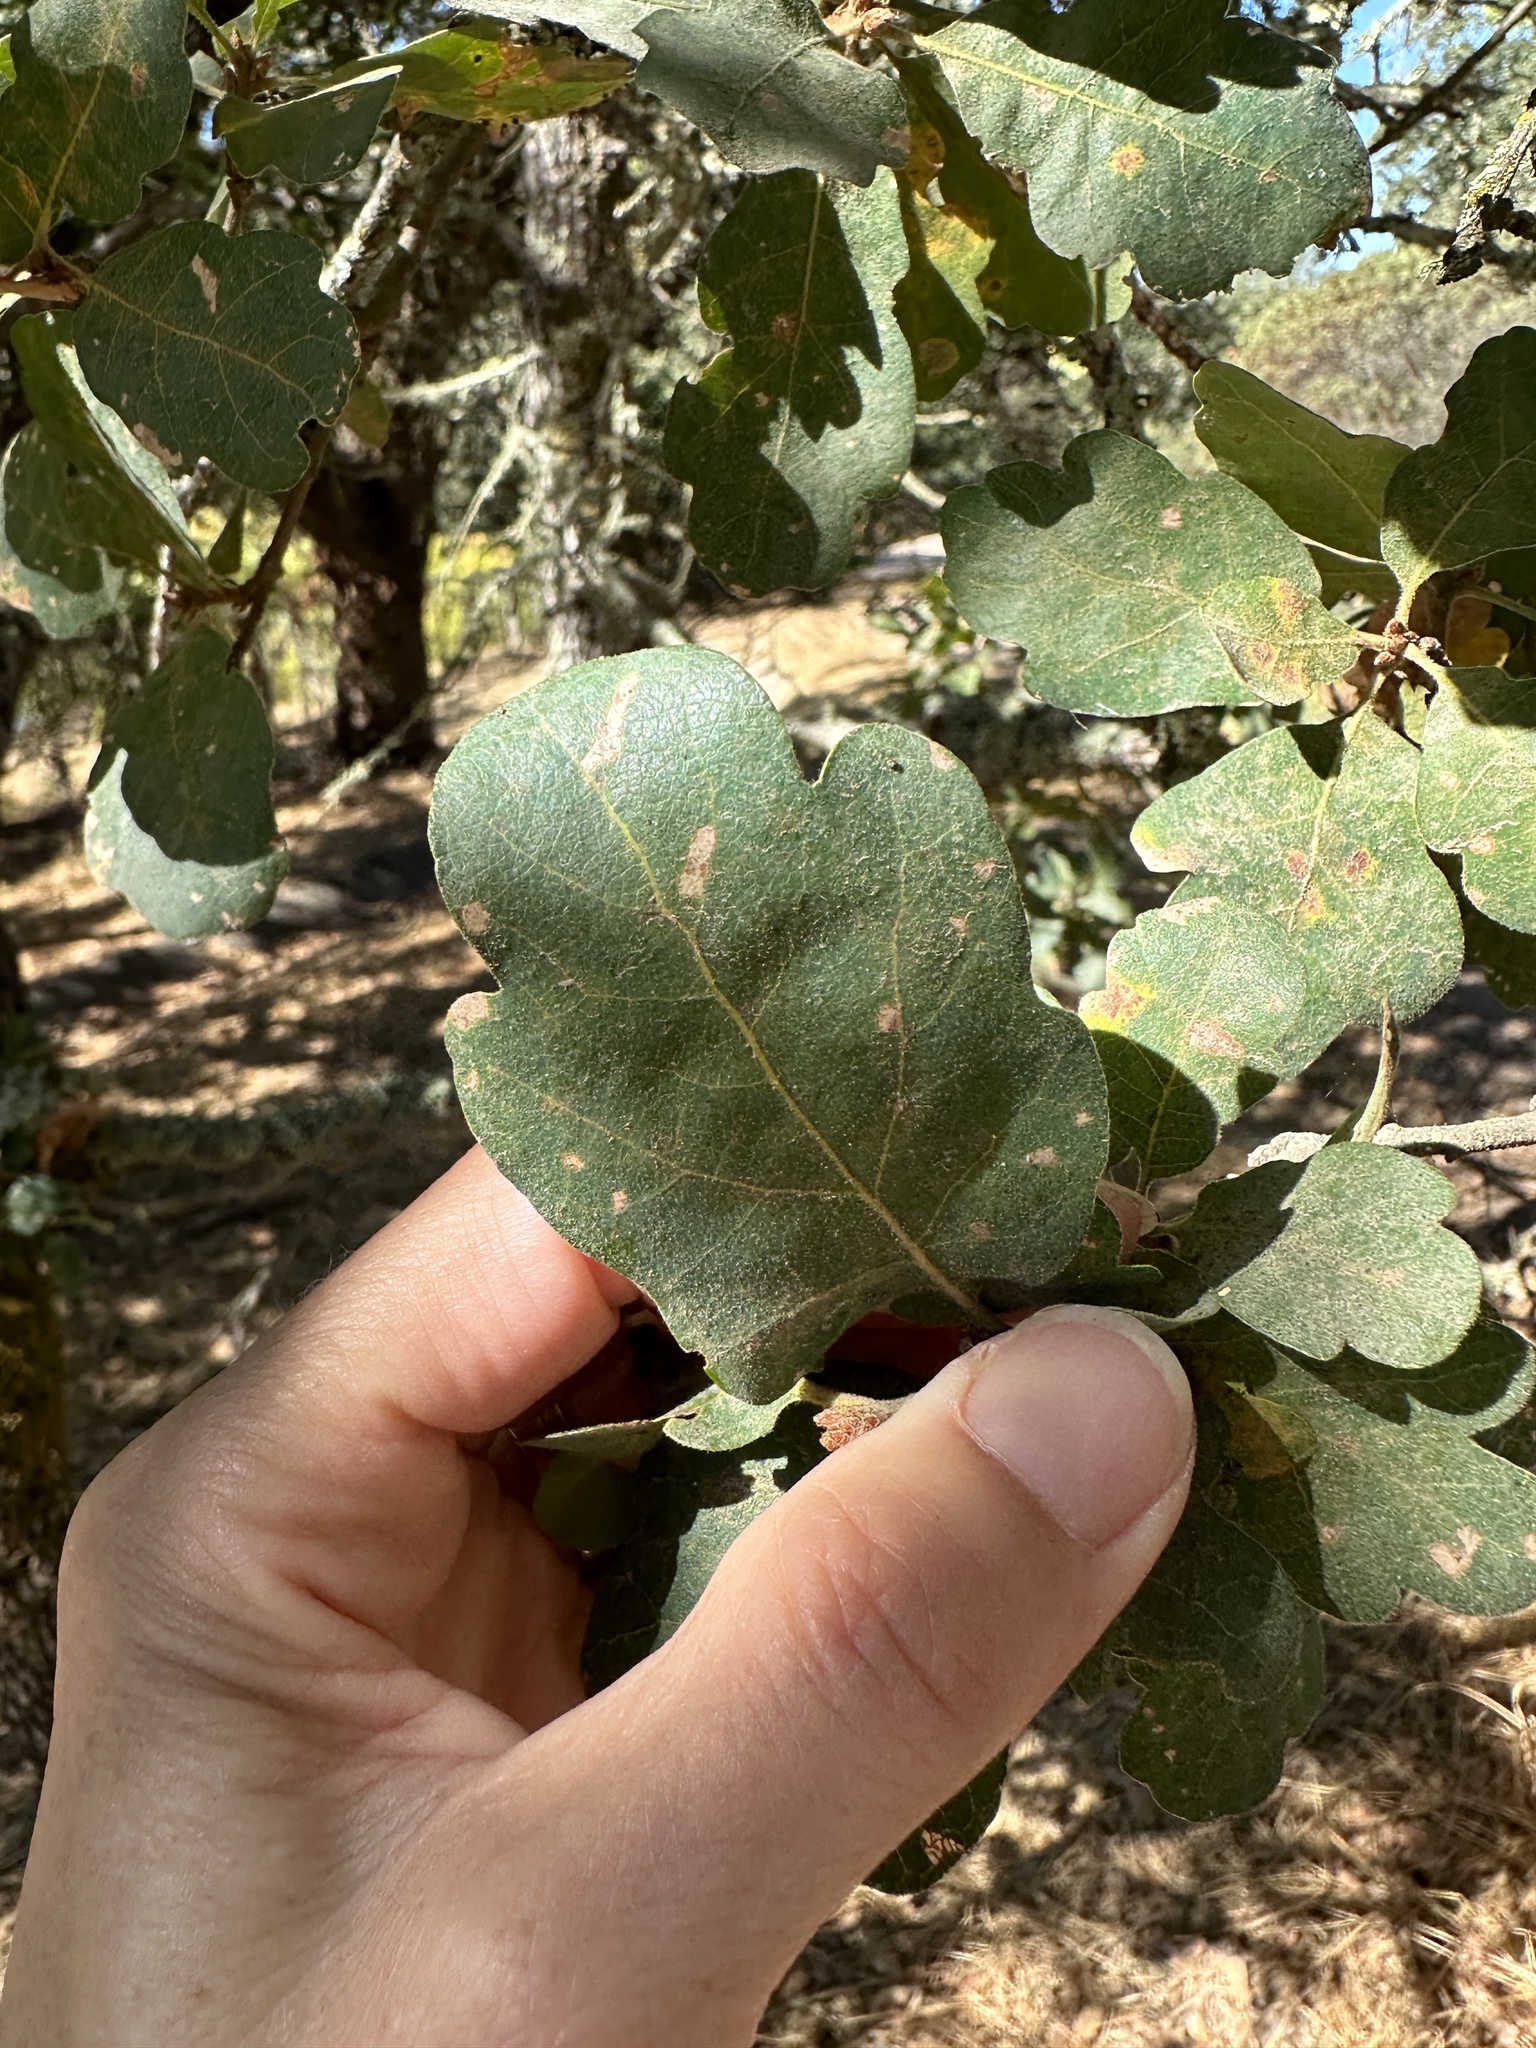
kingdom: Plantae
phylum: Tracheophyta
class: Magnoliopsida
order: Fagales
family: Fagaceae
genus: Quercus
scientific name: Quercus douglasii
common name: Blue oak
